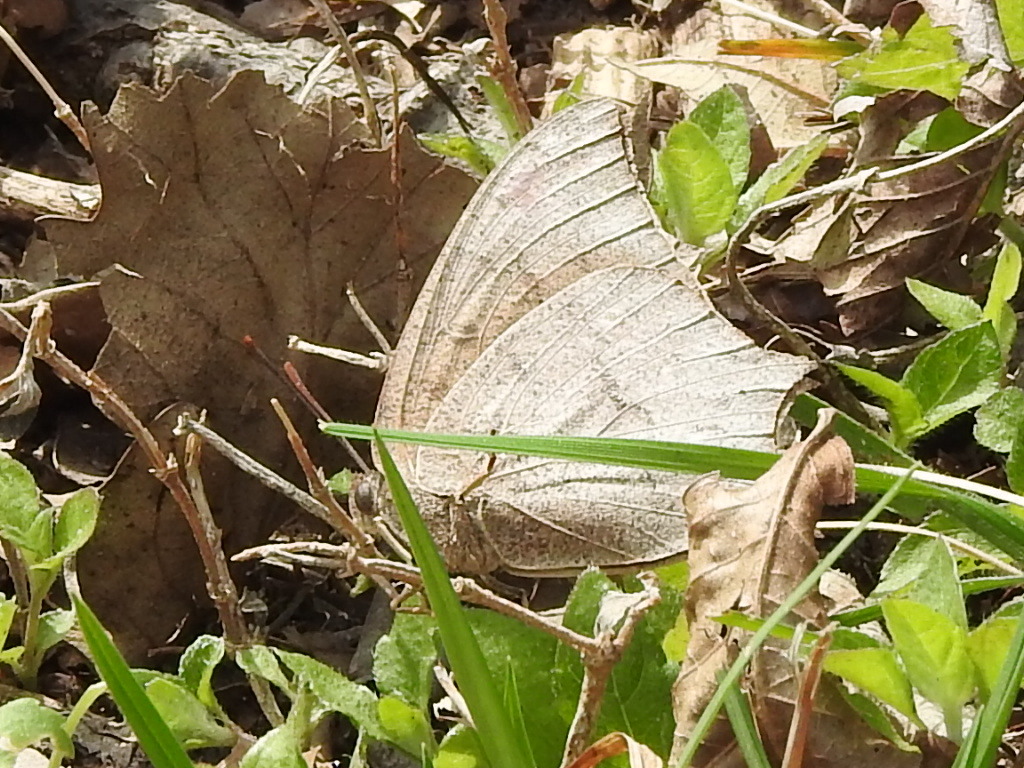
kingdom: Animalia
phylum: Arthropoda
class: Insecta
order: Lepidoptera
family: Nymphalidae
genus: Anaea
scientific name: Anaea andria
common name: Goatweed leafwing
